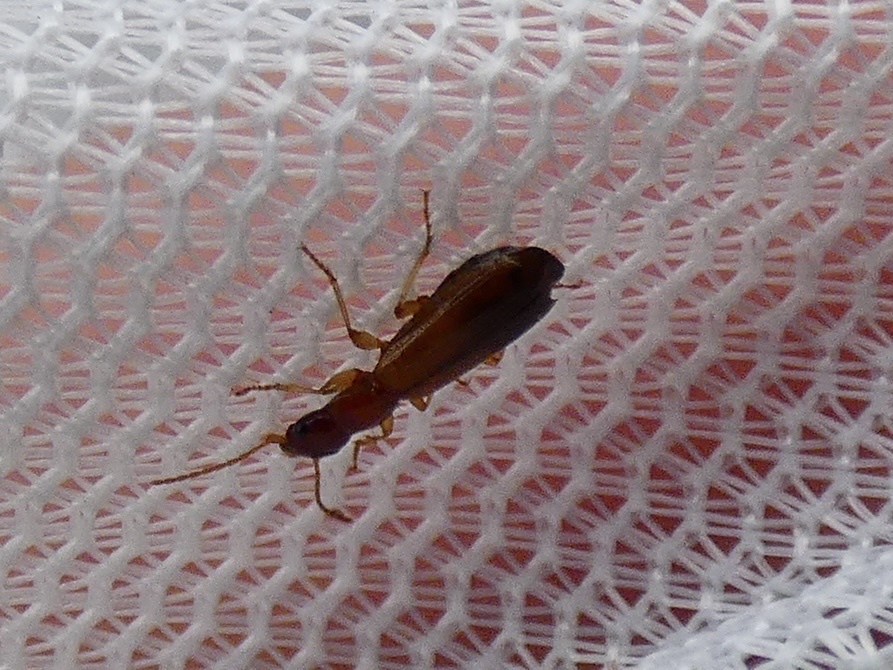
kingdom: Animalia
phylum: Arthropoda
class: Insecta
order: Coleoptera
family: Carabidae
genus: Paradromius
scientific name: Paradromius linearis
